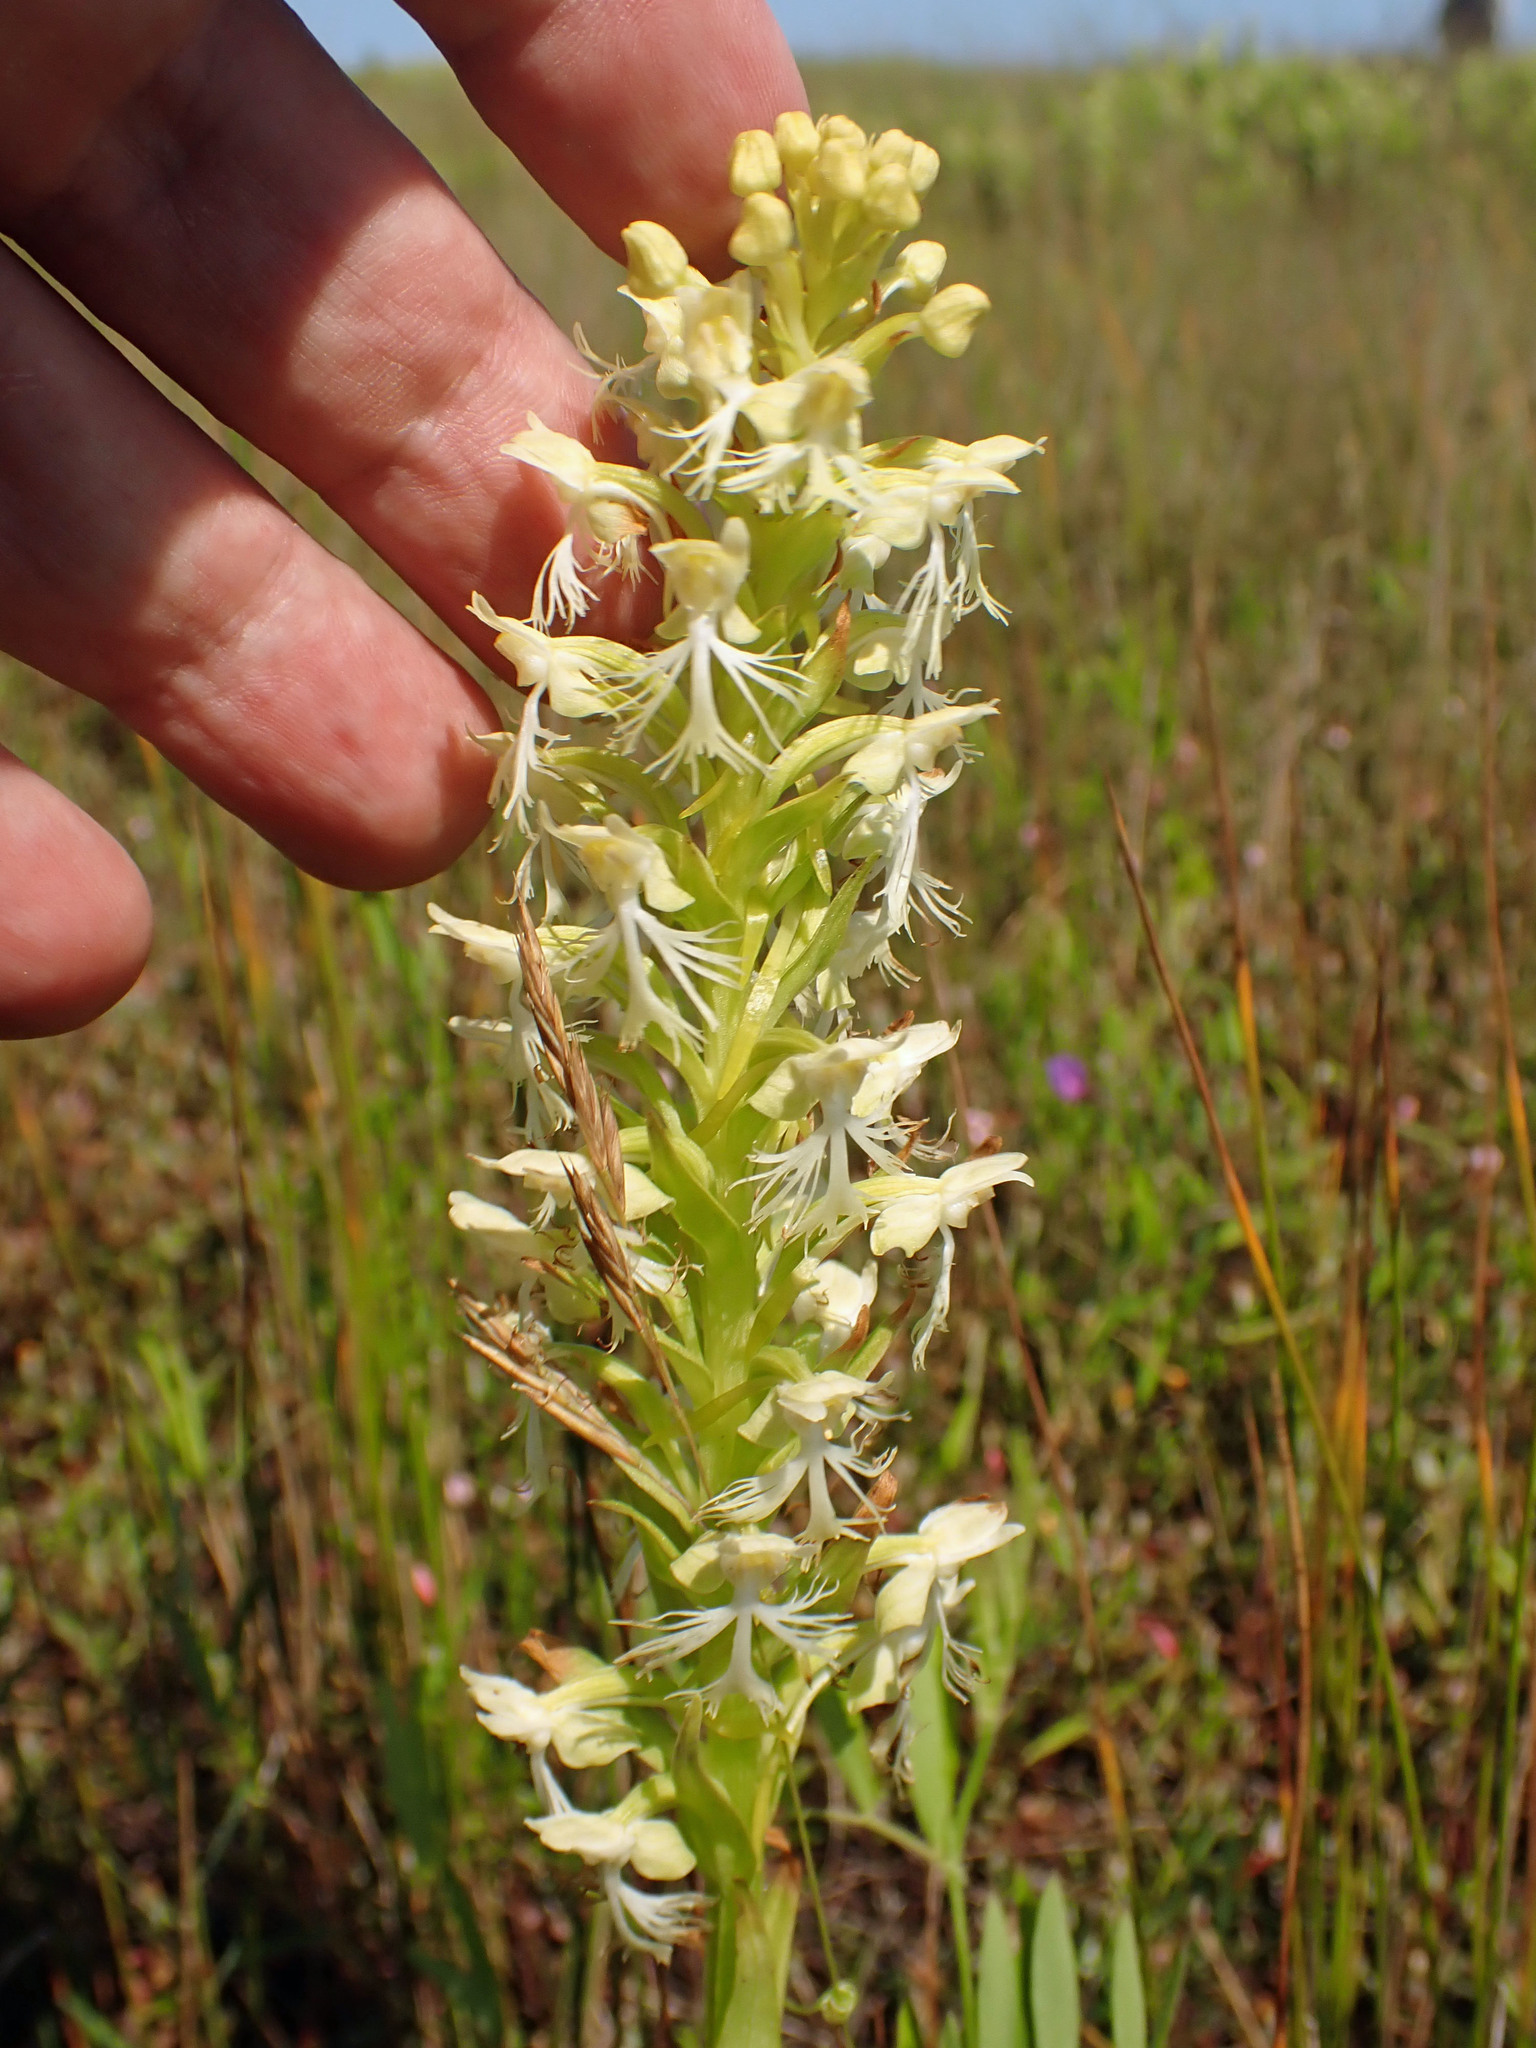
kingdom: Plantae
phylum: Tracheophyta
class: Liliopsida
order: Asparagales
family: Orchidaceae
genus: Platanthera
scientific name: Platanthera lacera
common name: Green fringed orchid
